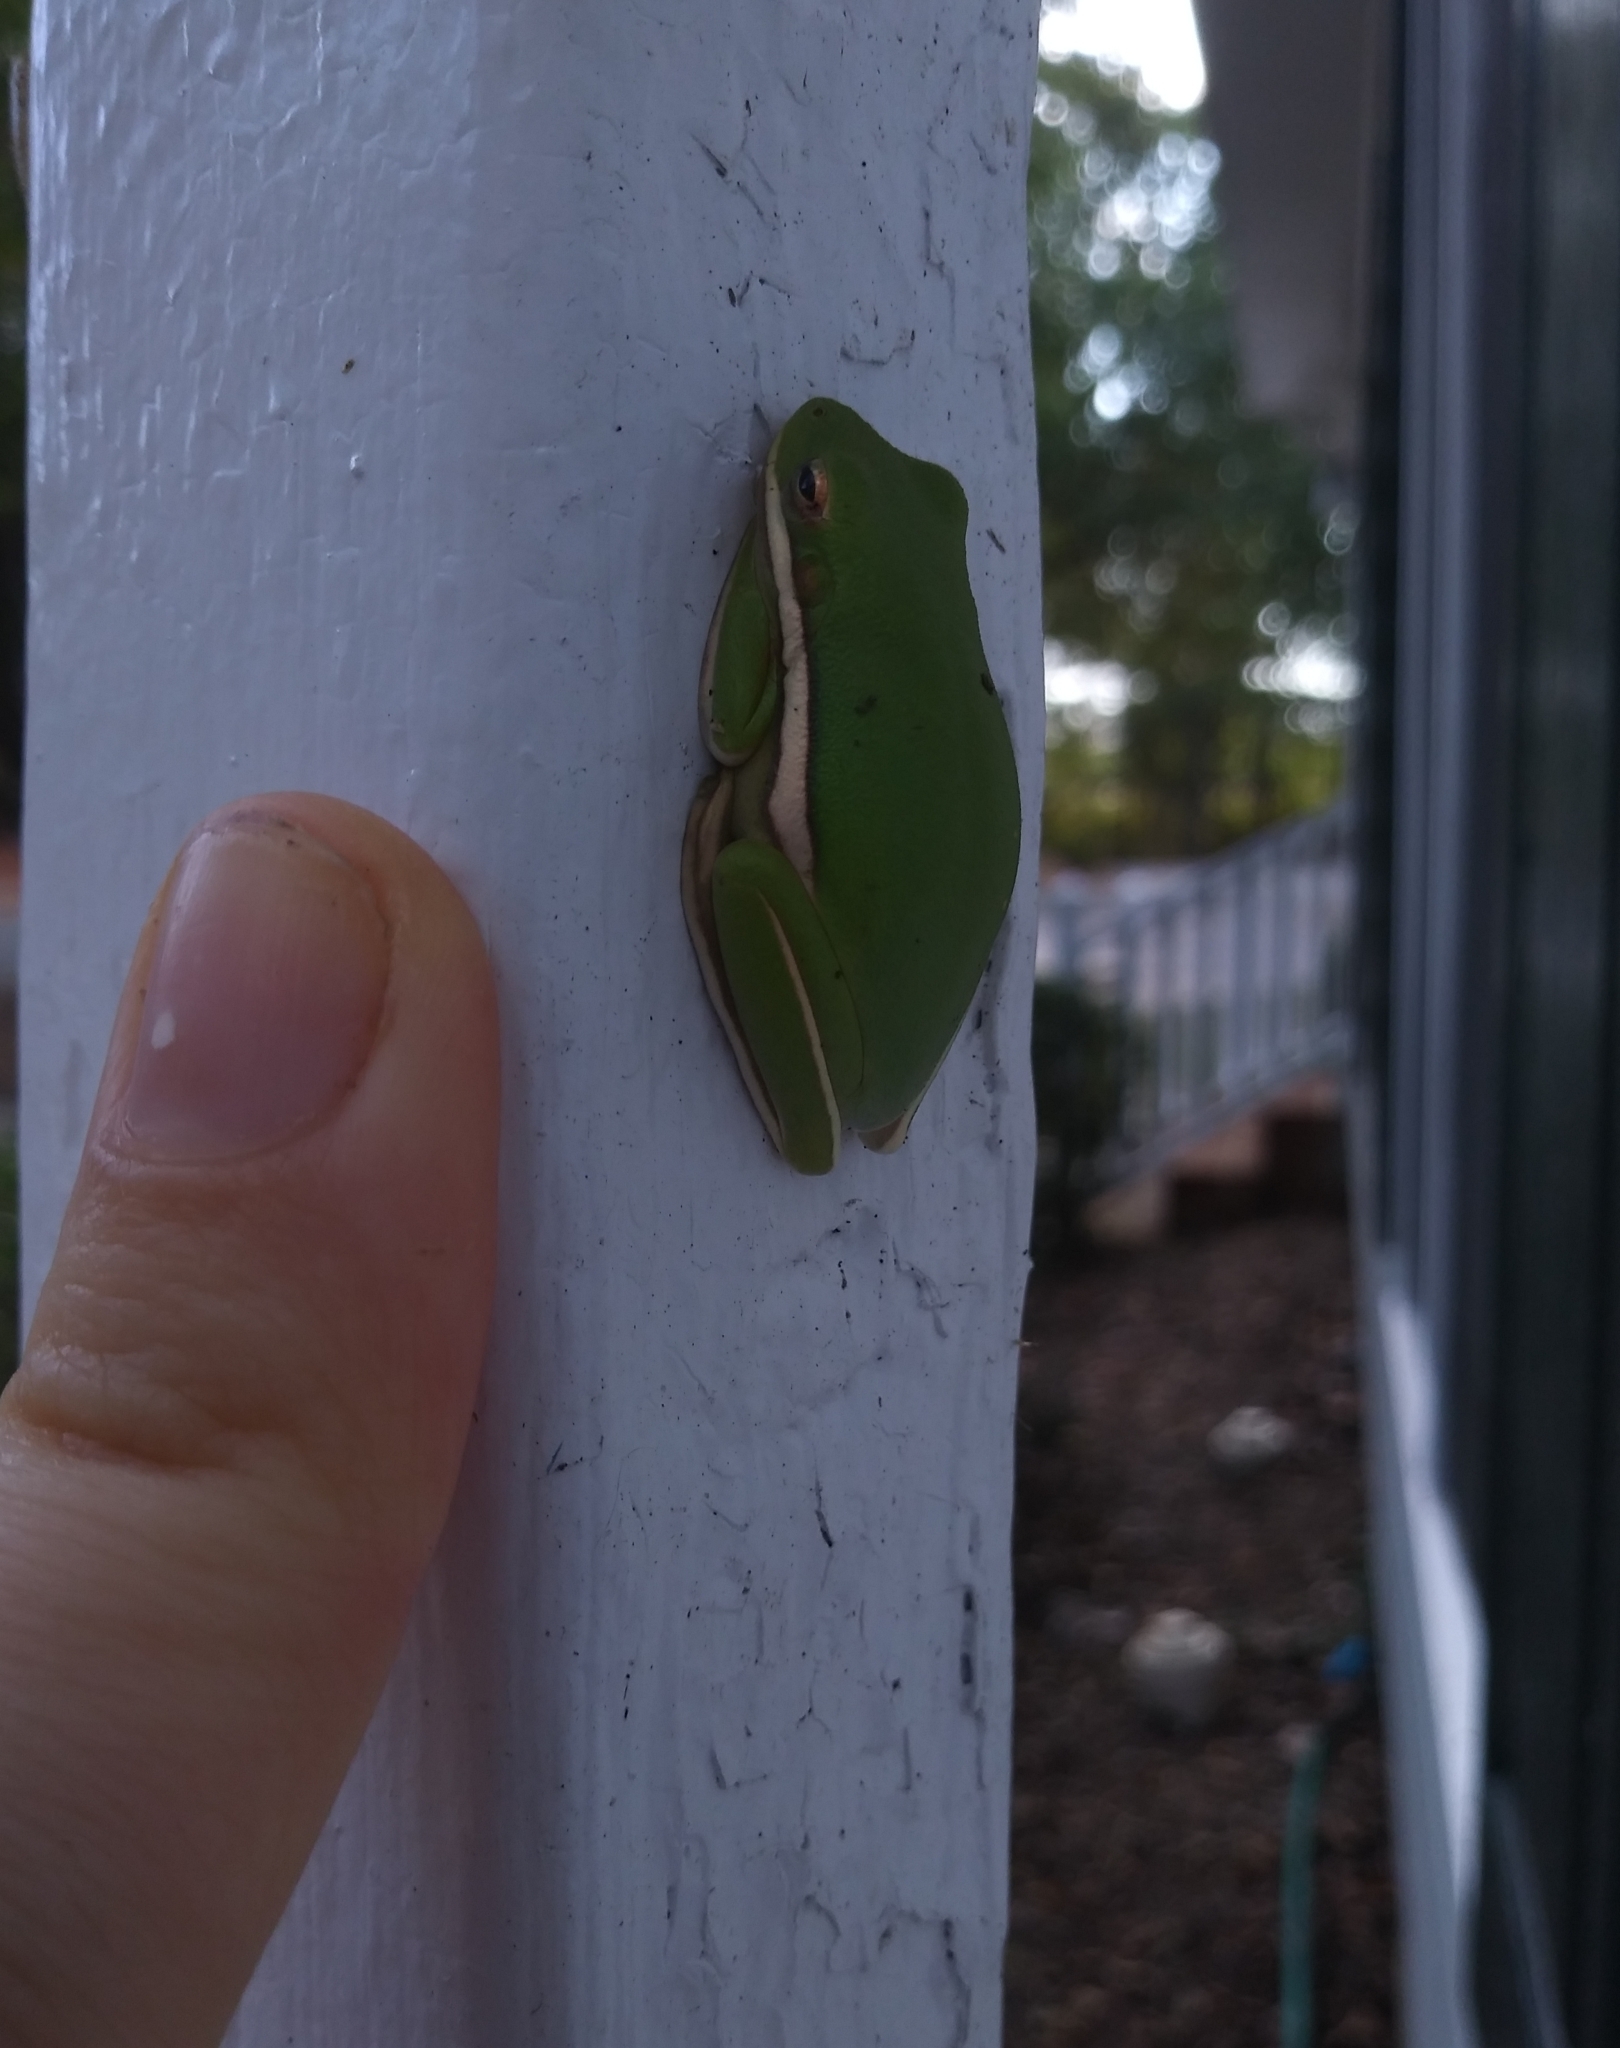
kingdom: Animalia
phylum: Chordata
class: Amphibia
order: Anura
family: Hylidae
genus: Dryophytes
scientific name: Dryophytes cinereus
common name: Green treefrog
